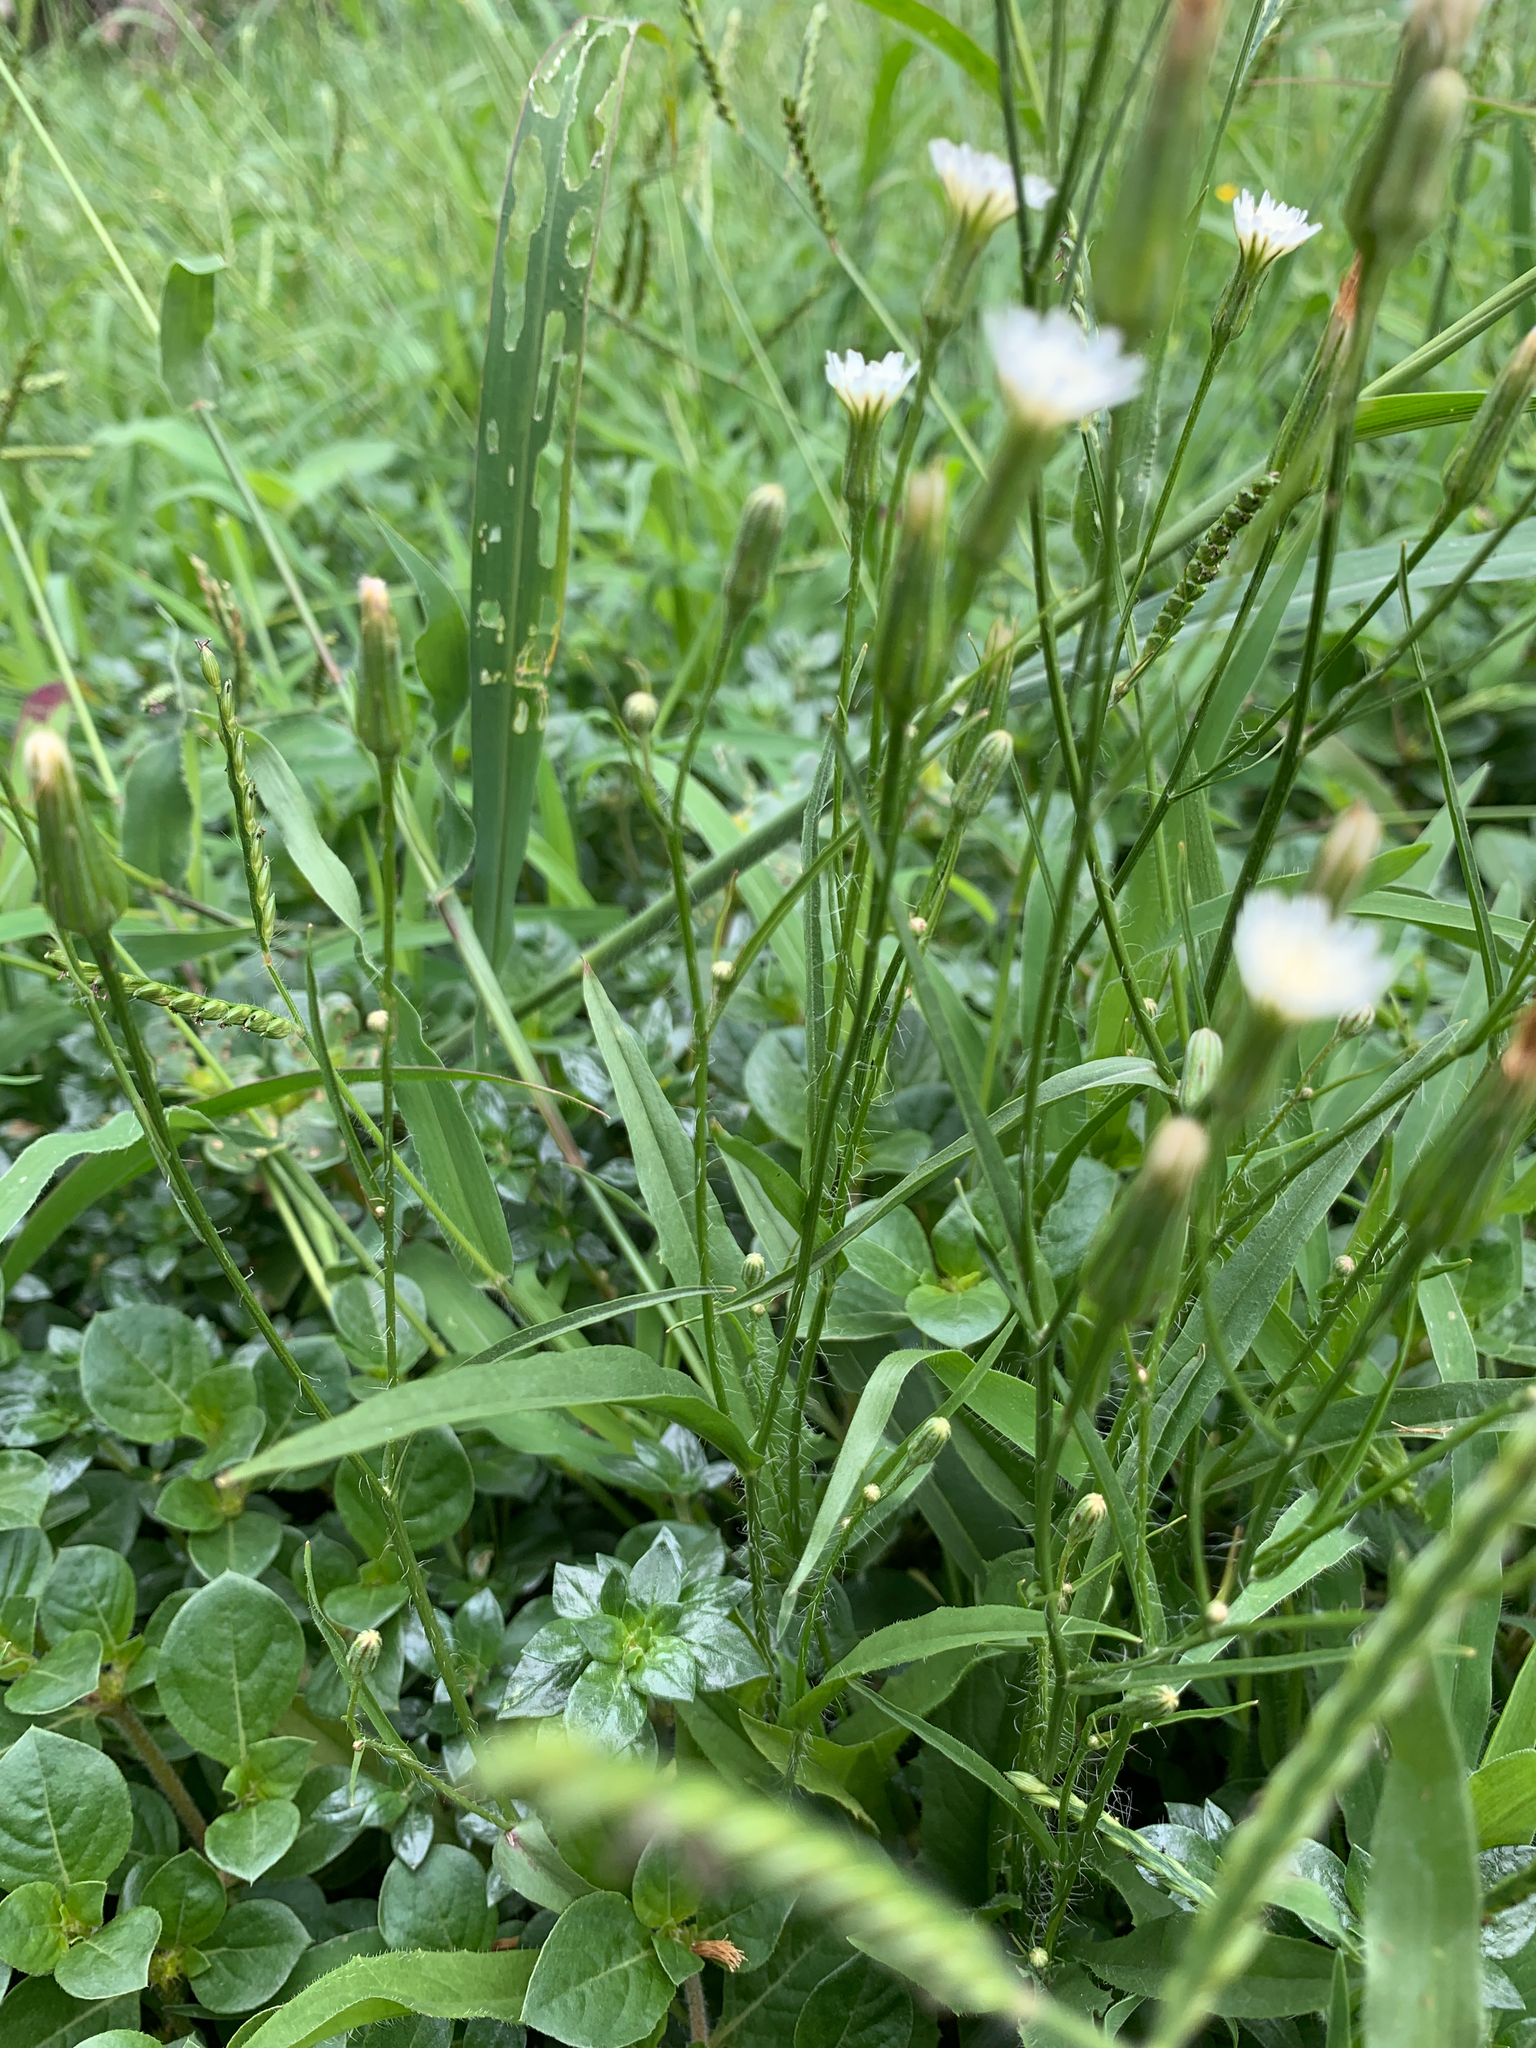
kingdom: Plantae
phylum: Tracheophyta
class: Magnoliopsida
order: Asterales
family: Asteraceae
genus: Hypochaeris
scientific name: Hypochaeris albiflora
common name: White flatweed
